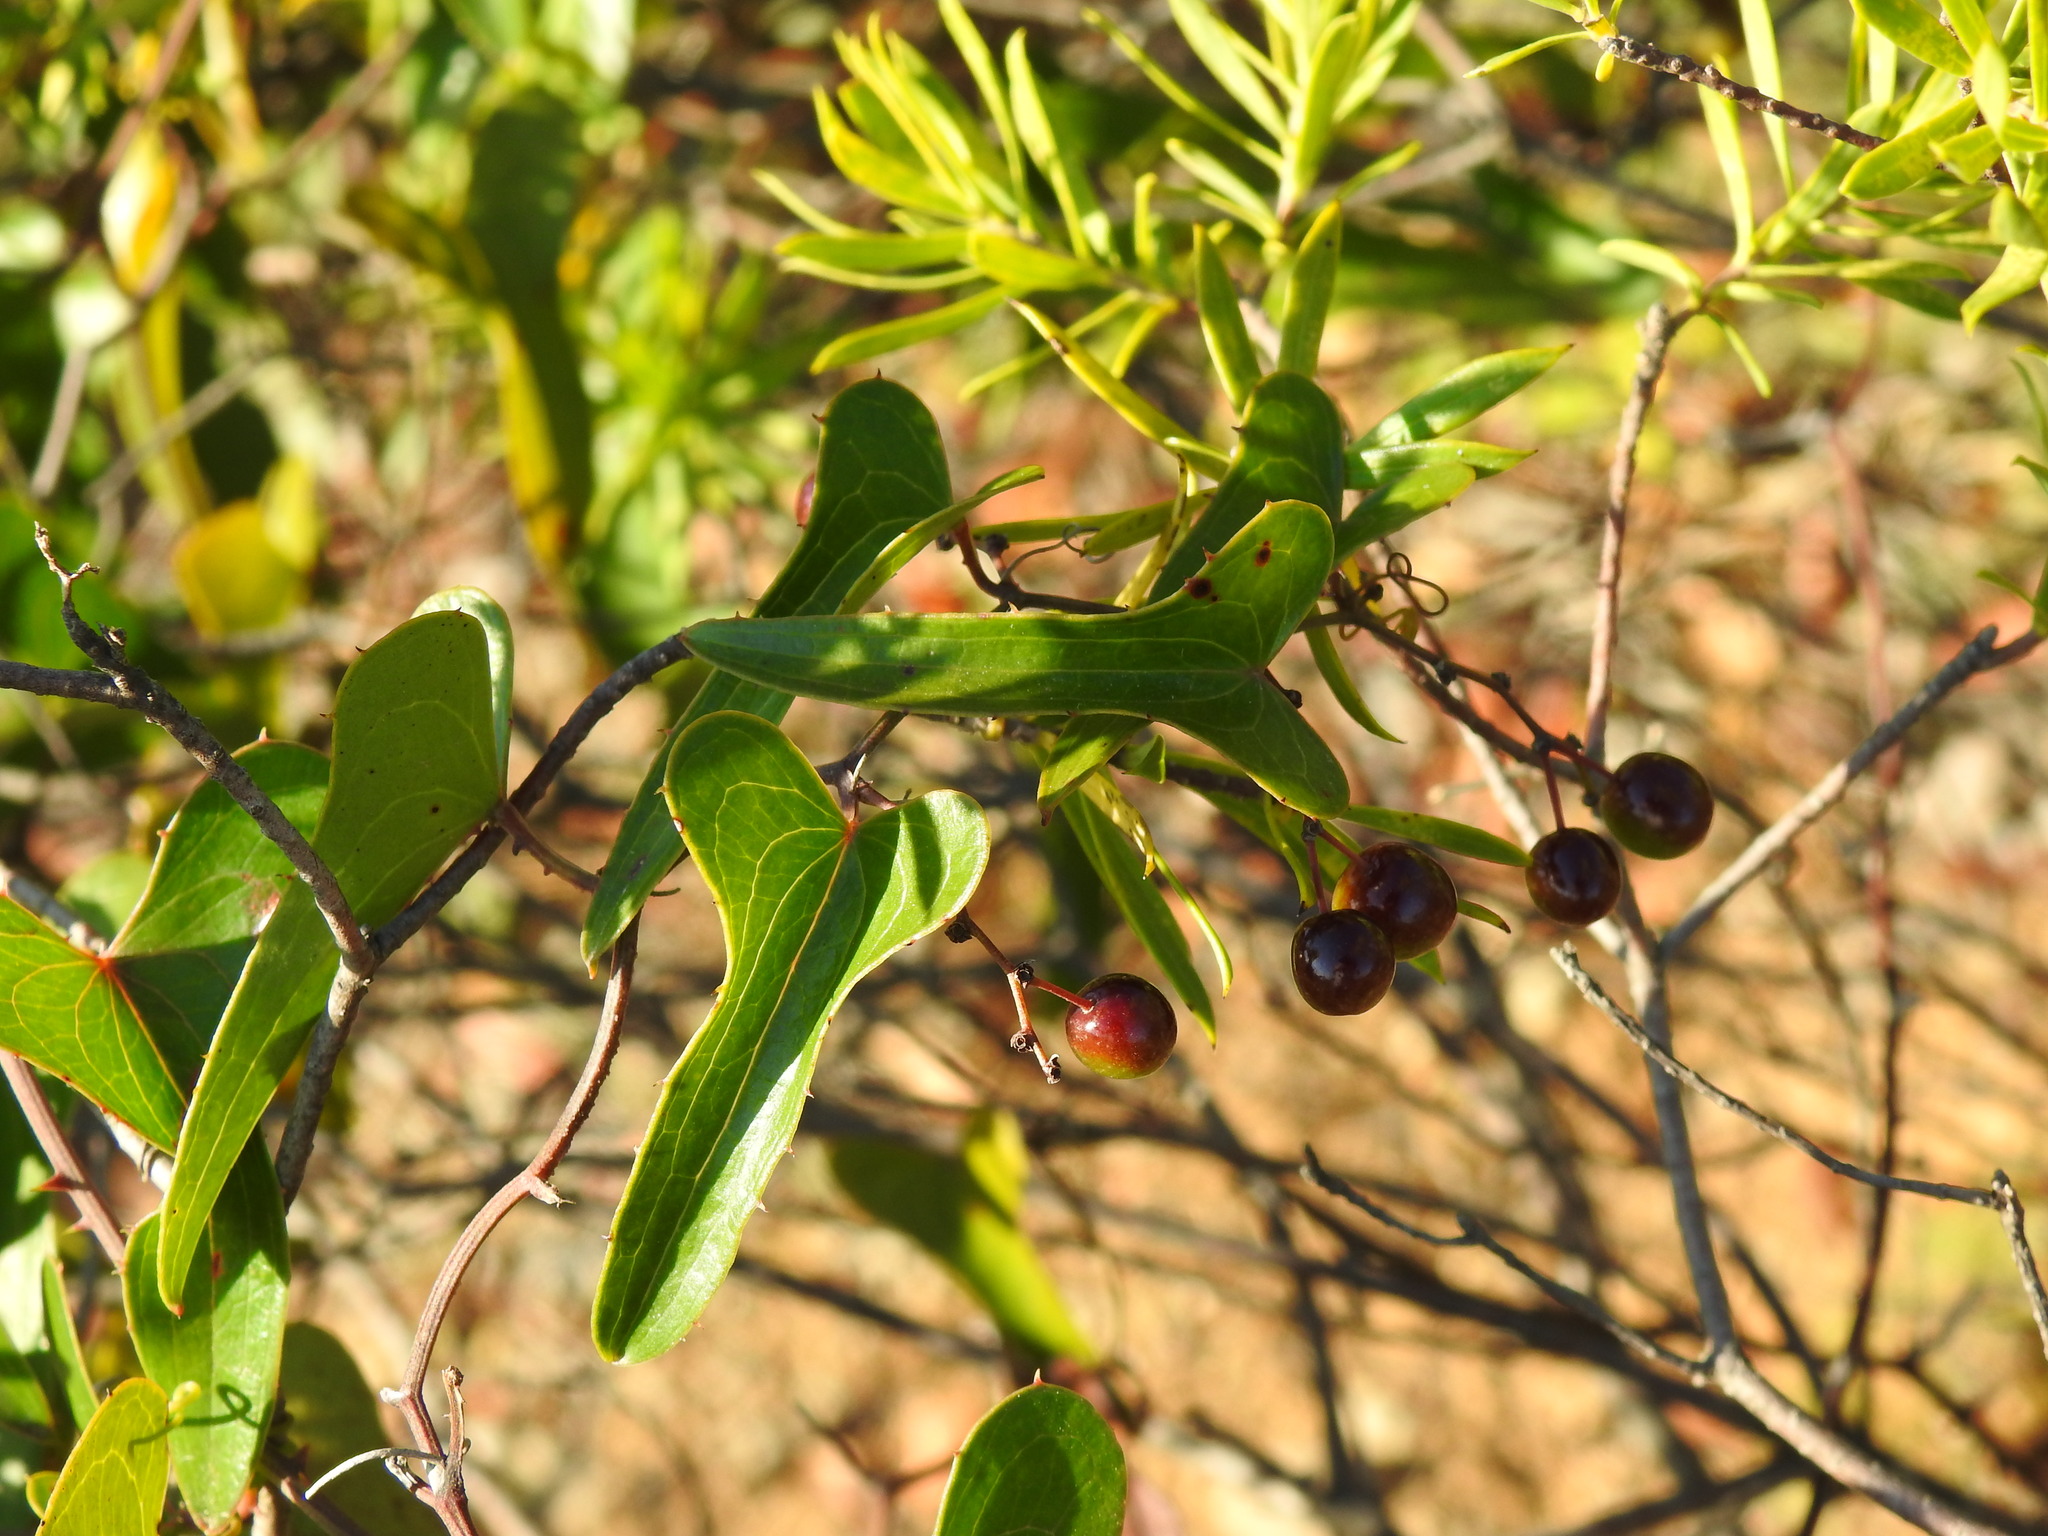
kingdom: Plantae
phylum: Tracheophyta
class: Liliopsida
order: Liliales
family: Smilacaceae
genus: Smilax
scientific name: Smilax aspera
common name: Common smilax
